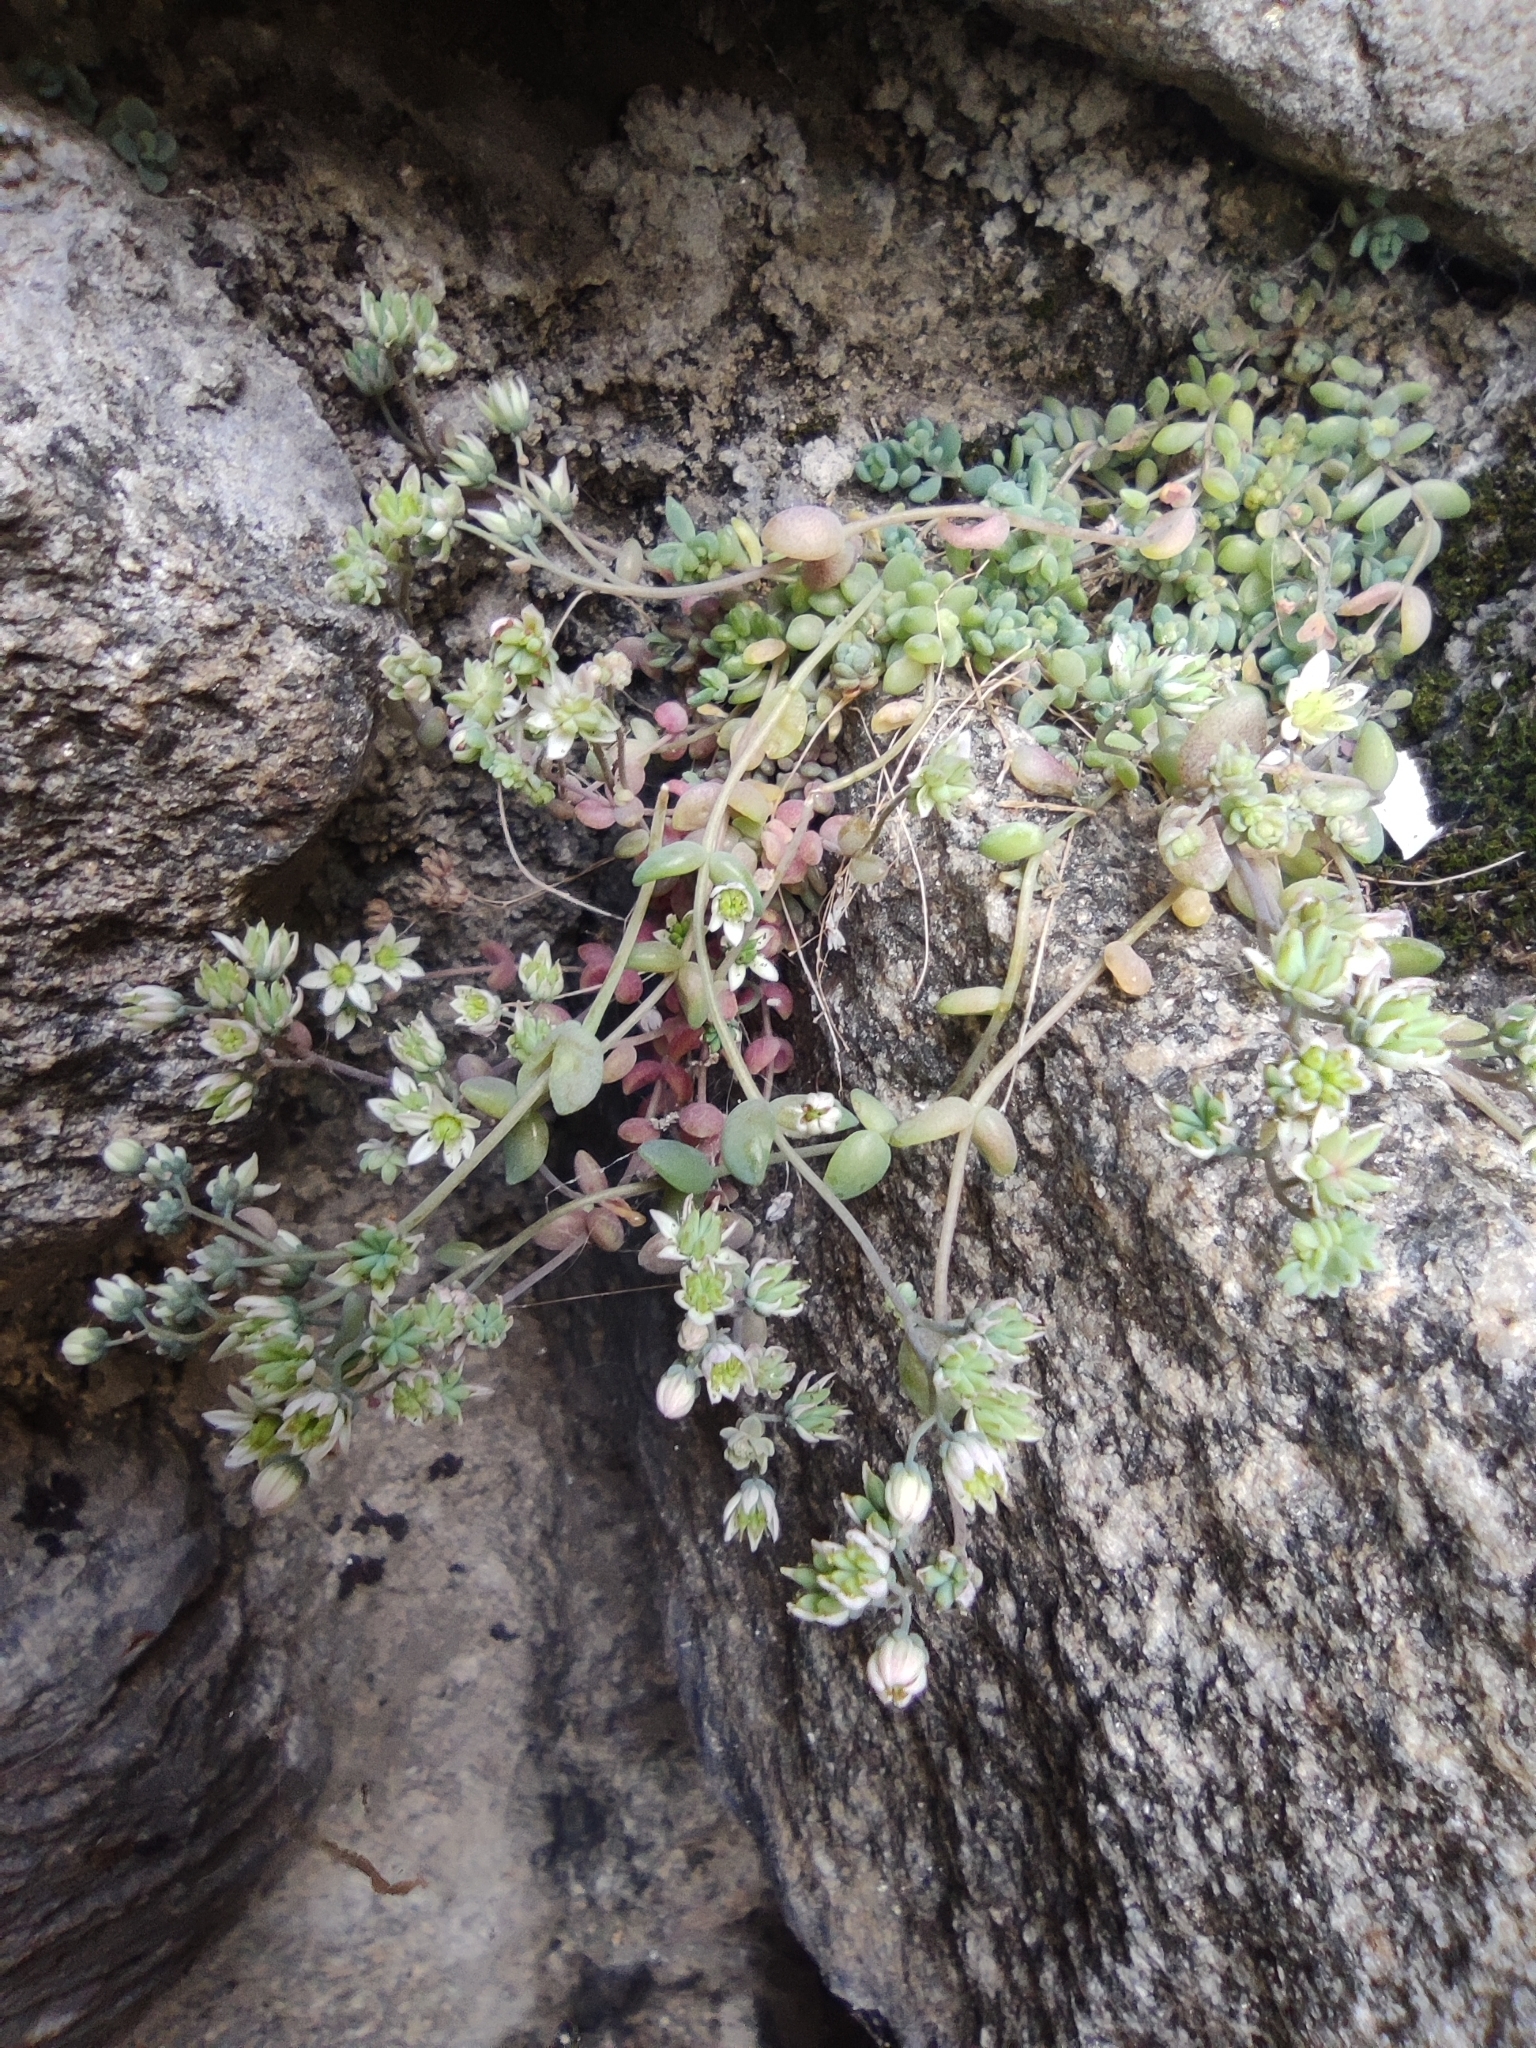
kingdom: Plantae
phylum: Tracheophyta
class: Magnoliopsida
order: Saxifragales
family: Crassulaceae
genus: Sedum
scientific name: Sedum dasyphyllum
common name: Thick-leaf stonecrop
